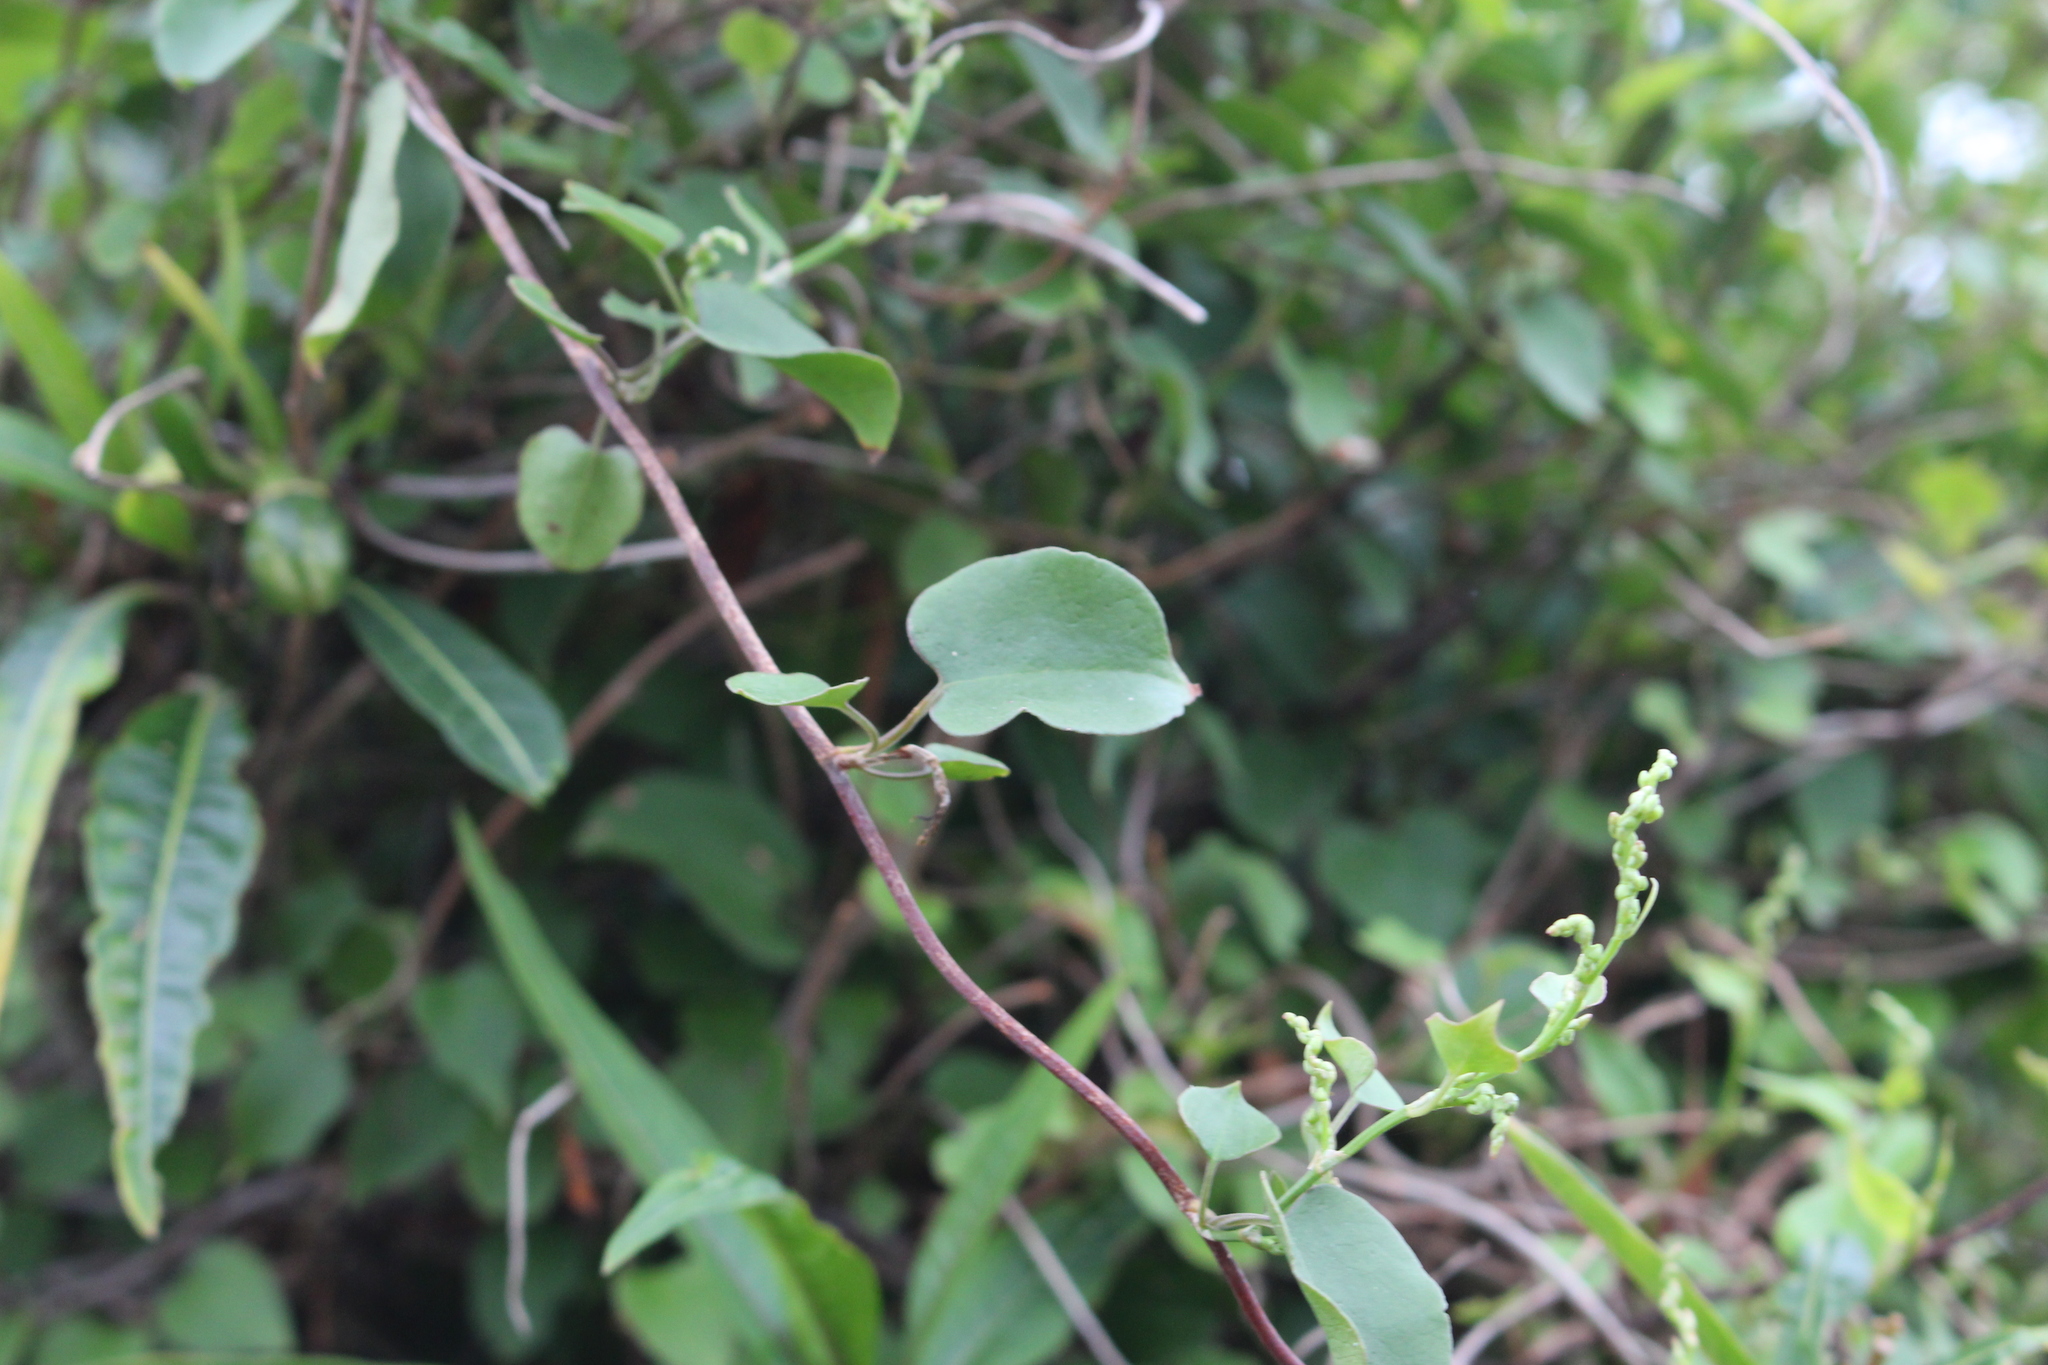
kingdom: Plantae
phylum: Tracheophyta
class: Magnoliopsida
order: Caryophyllales
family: Polygonaceae
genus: Muehlenbeckia
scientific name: Muehlenbeckia australis
